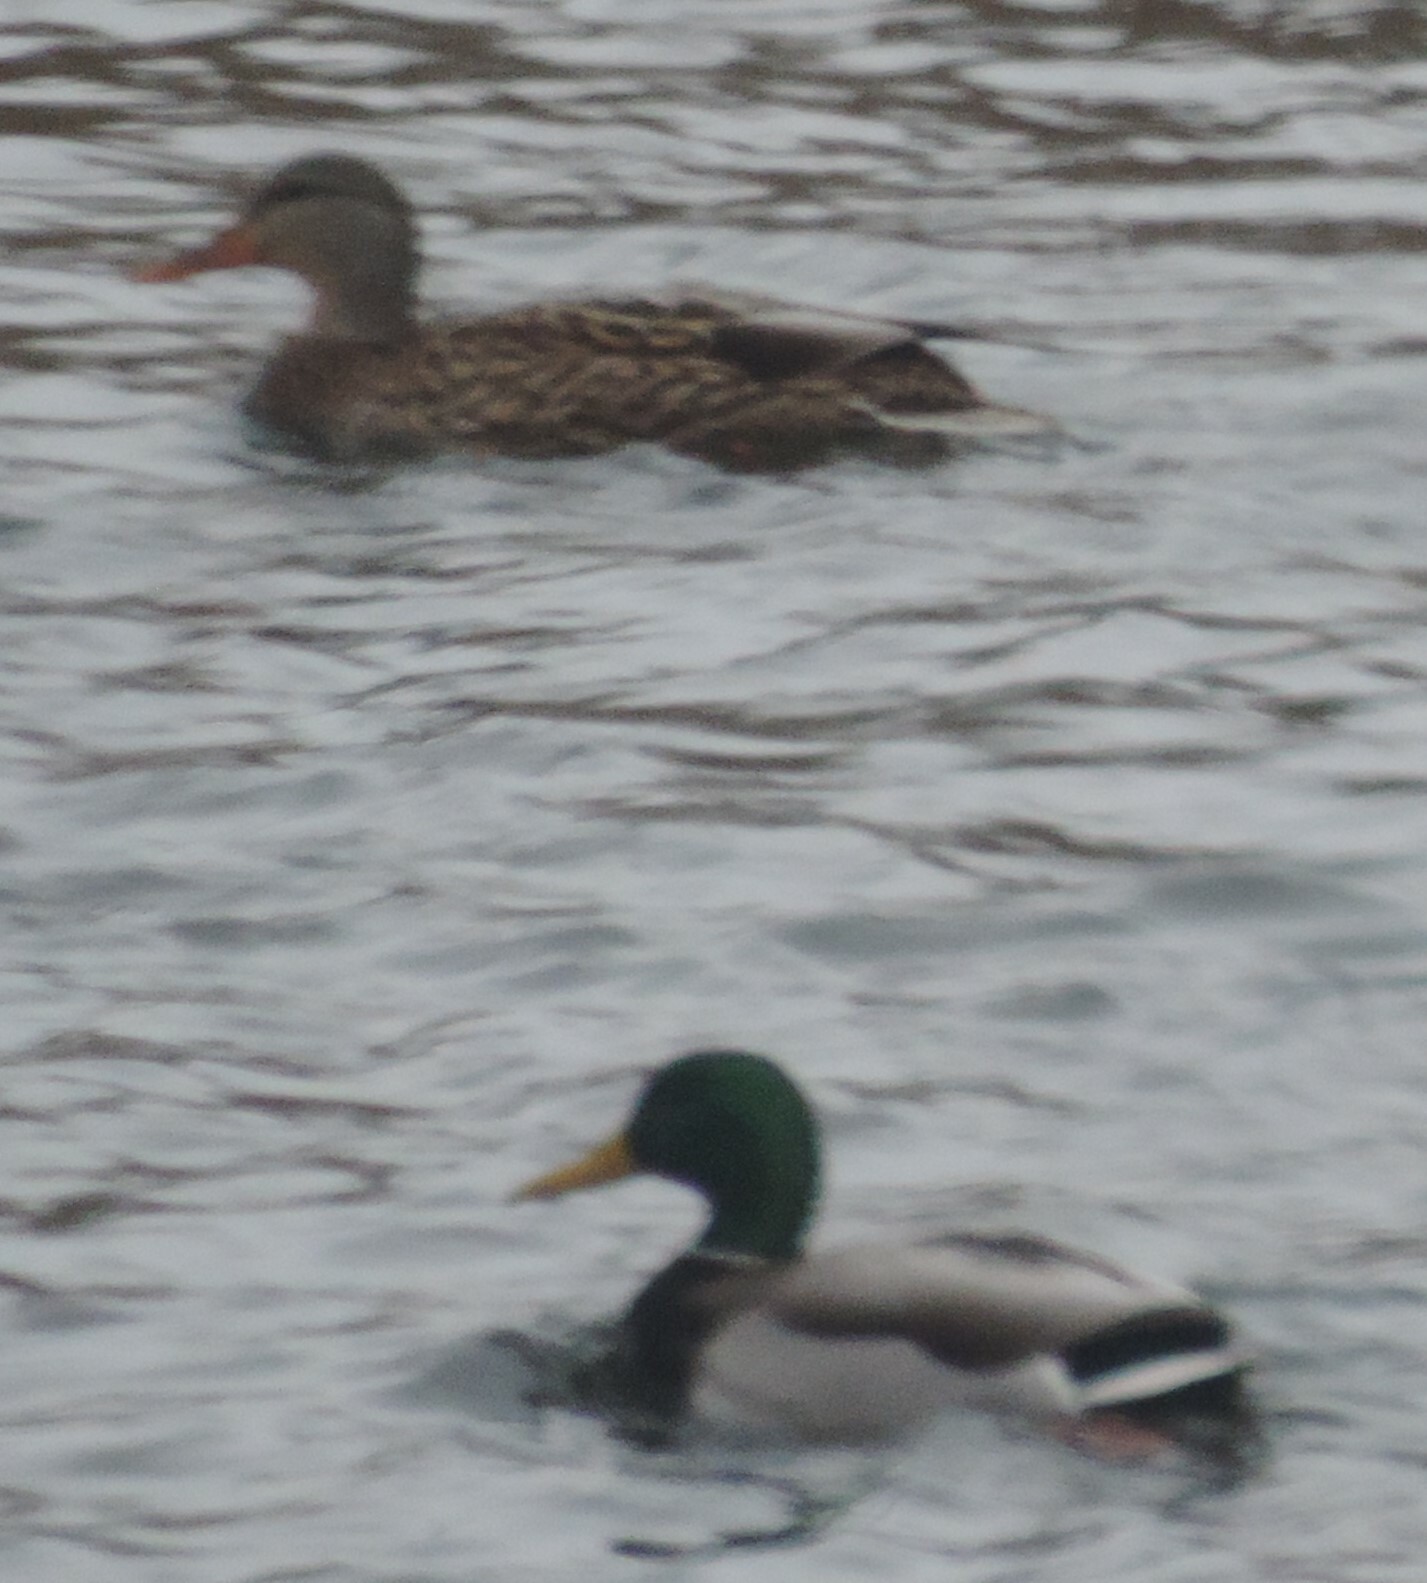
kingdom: Animalia
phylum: Chordata
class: Aves
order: Anseriformes
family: Anatidae
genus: Anas
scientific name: Anas platyrhynchos
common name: Mallard
